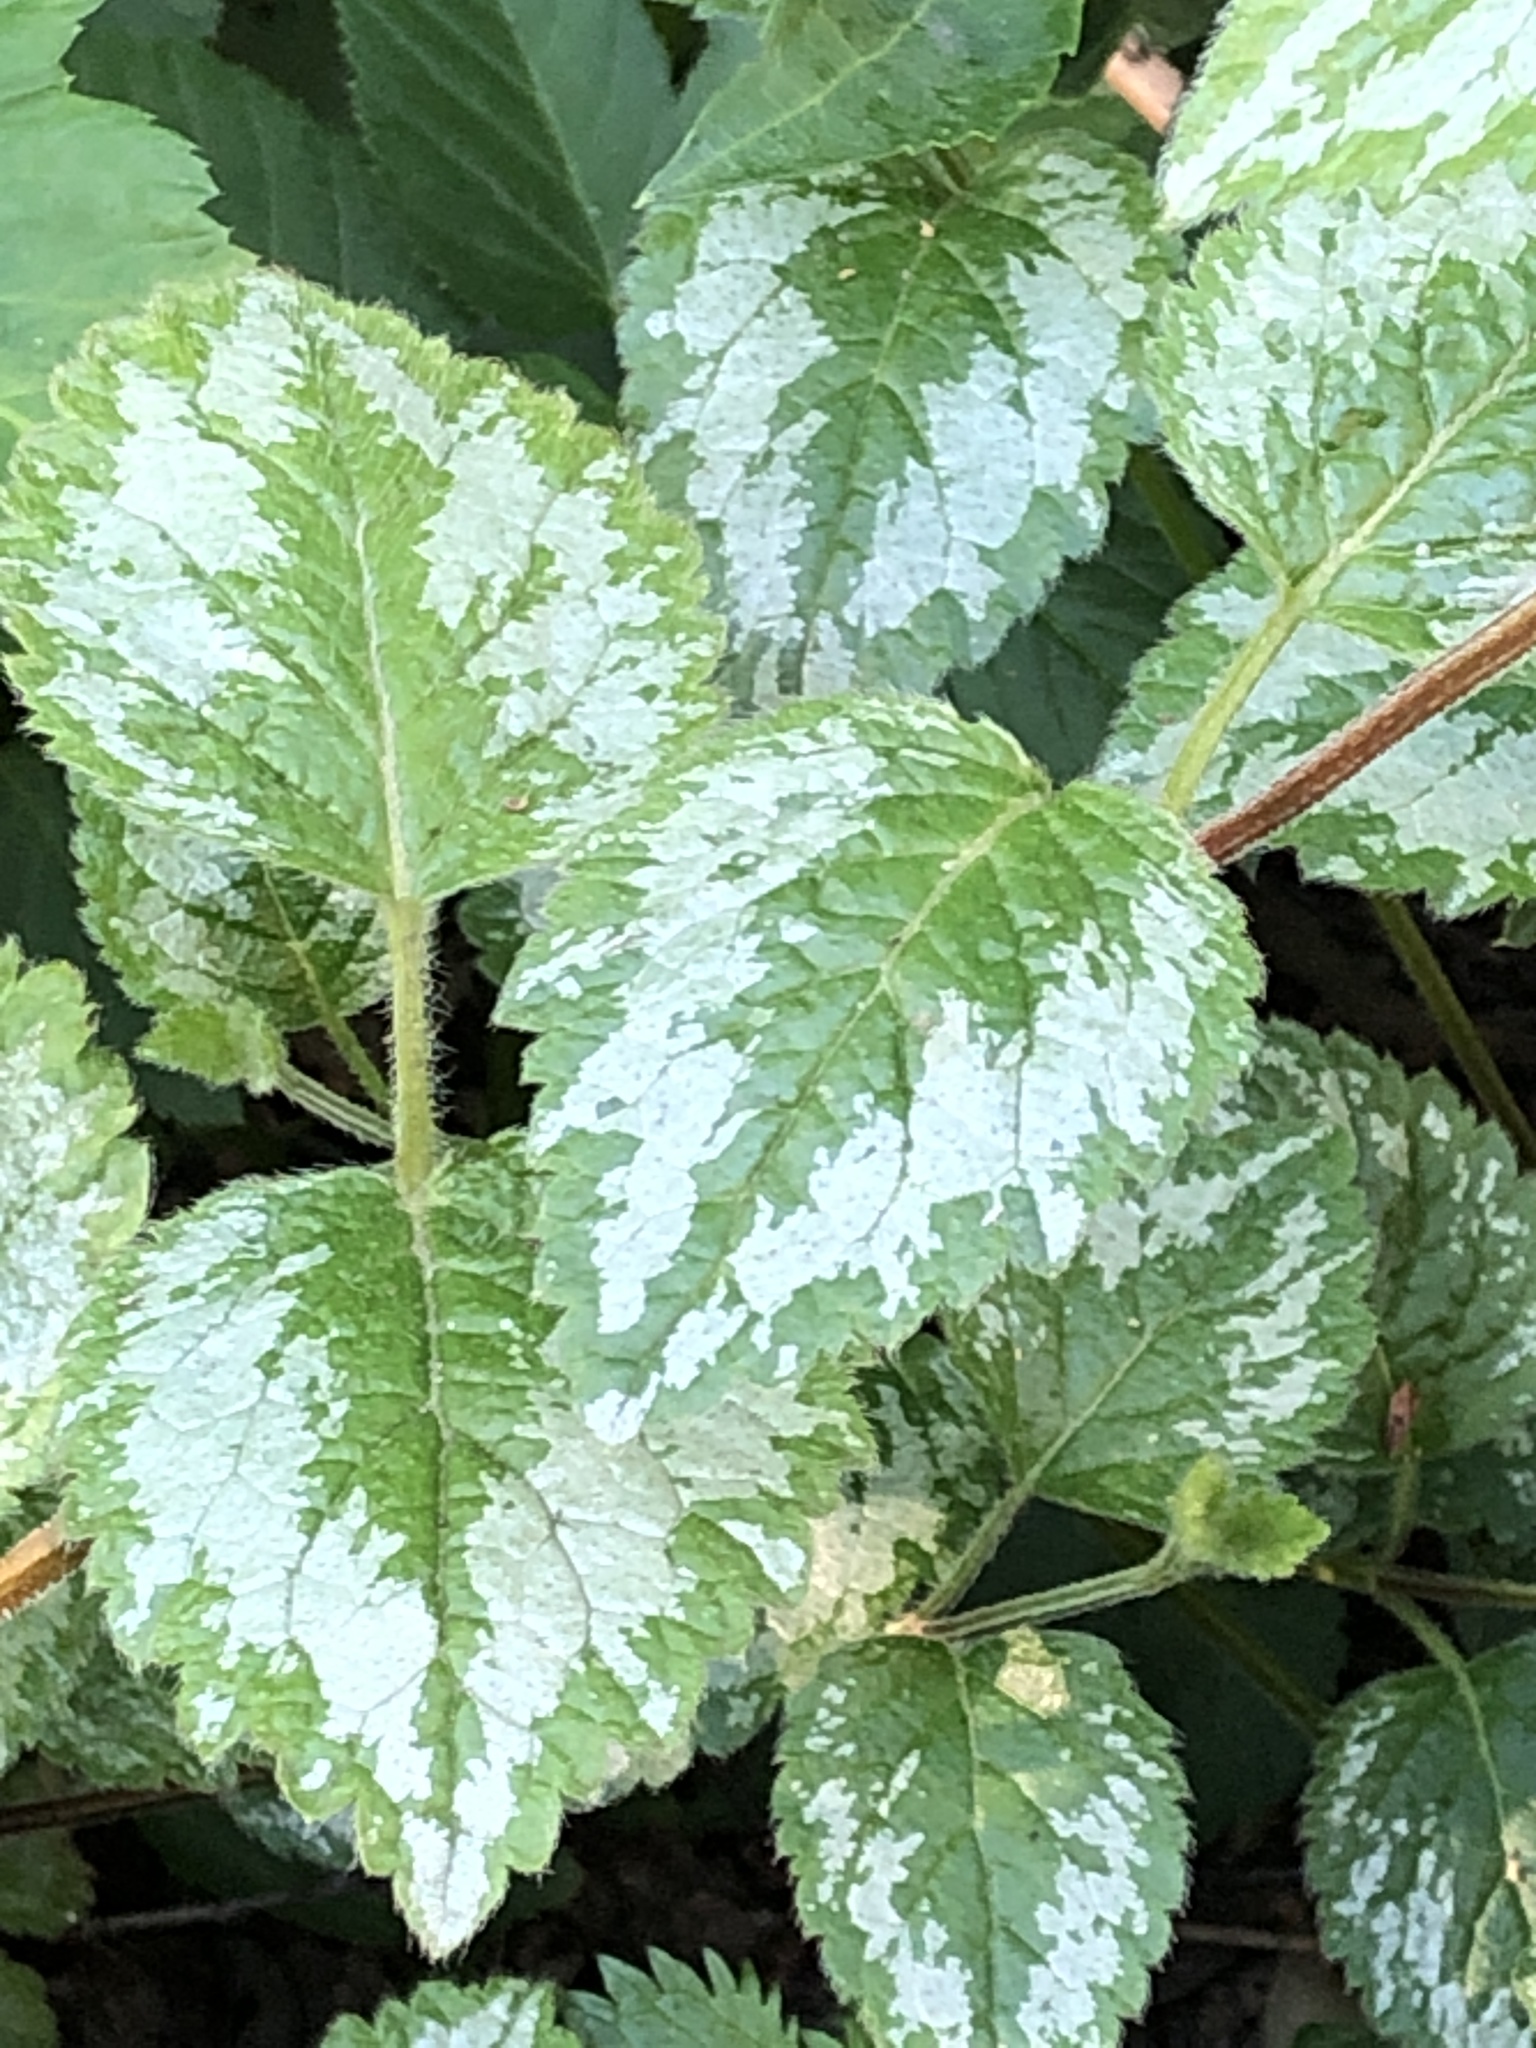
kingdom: Plantae
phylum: Tracheophyta
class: Magnoliopsida
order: Lamiales
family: Lamiaceae
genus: Lamium
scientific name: Lamium galeobdolon
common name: Yellow archangel
